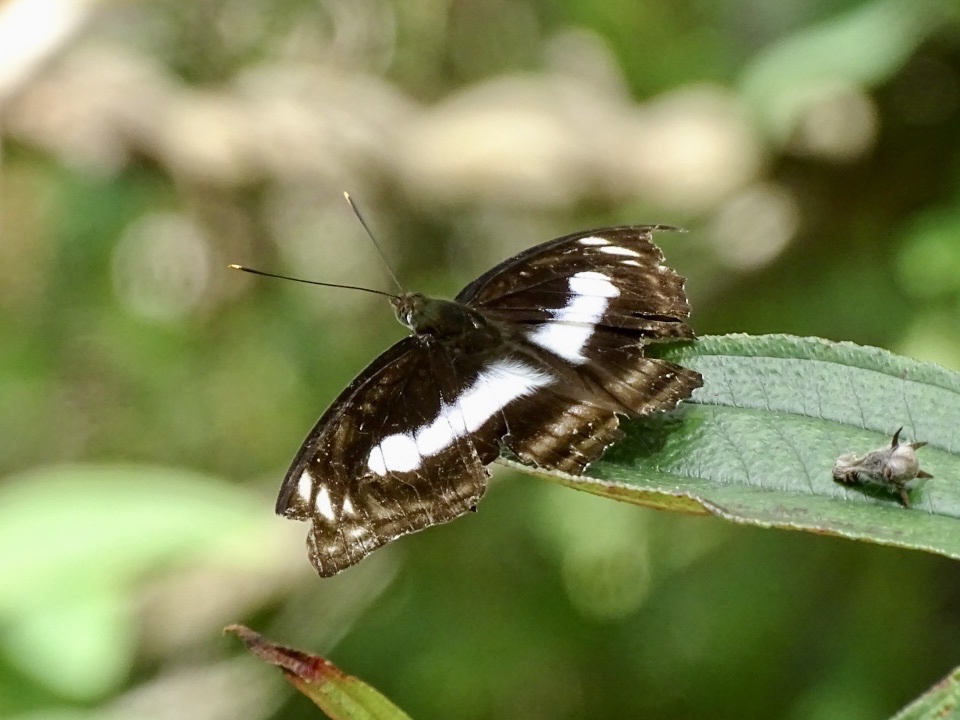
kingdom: Animalia
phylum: Arthropoda
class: Insecta
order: Lepidoptera
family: Nymphalidae
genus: Parathyma
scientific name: Parathyma selenophora
